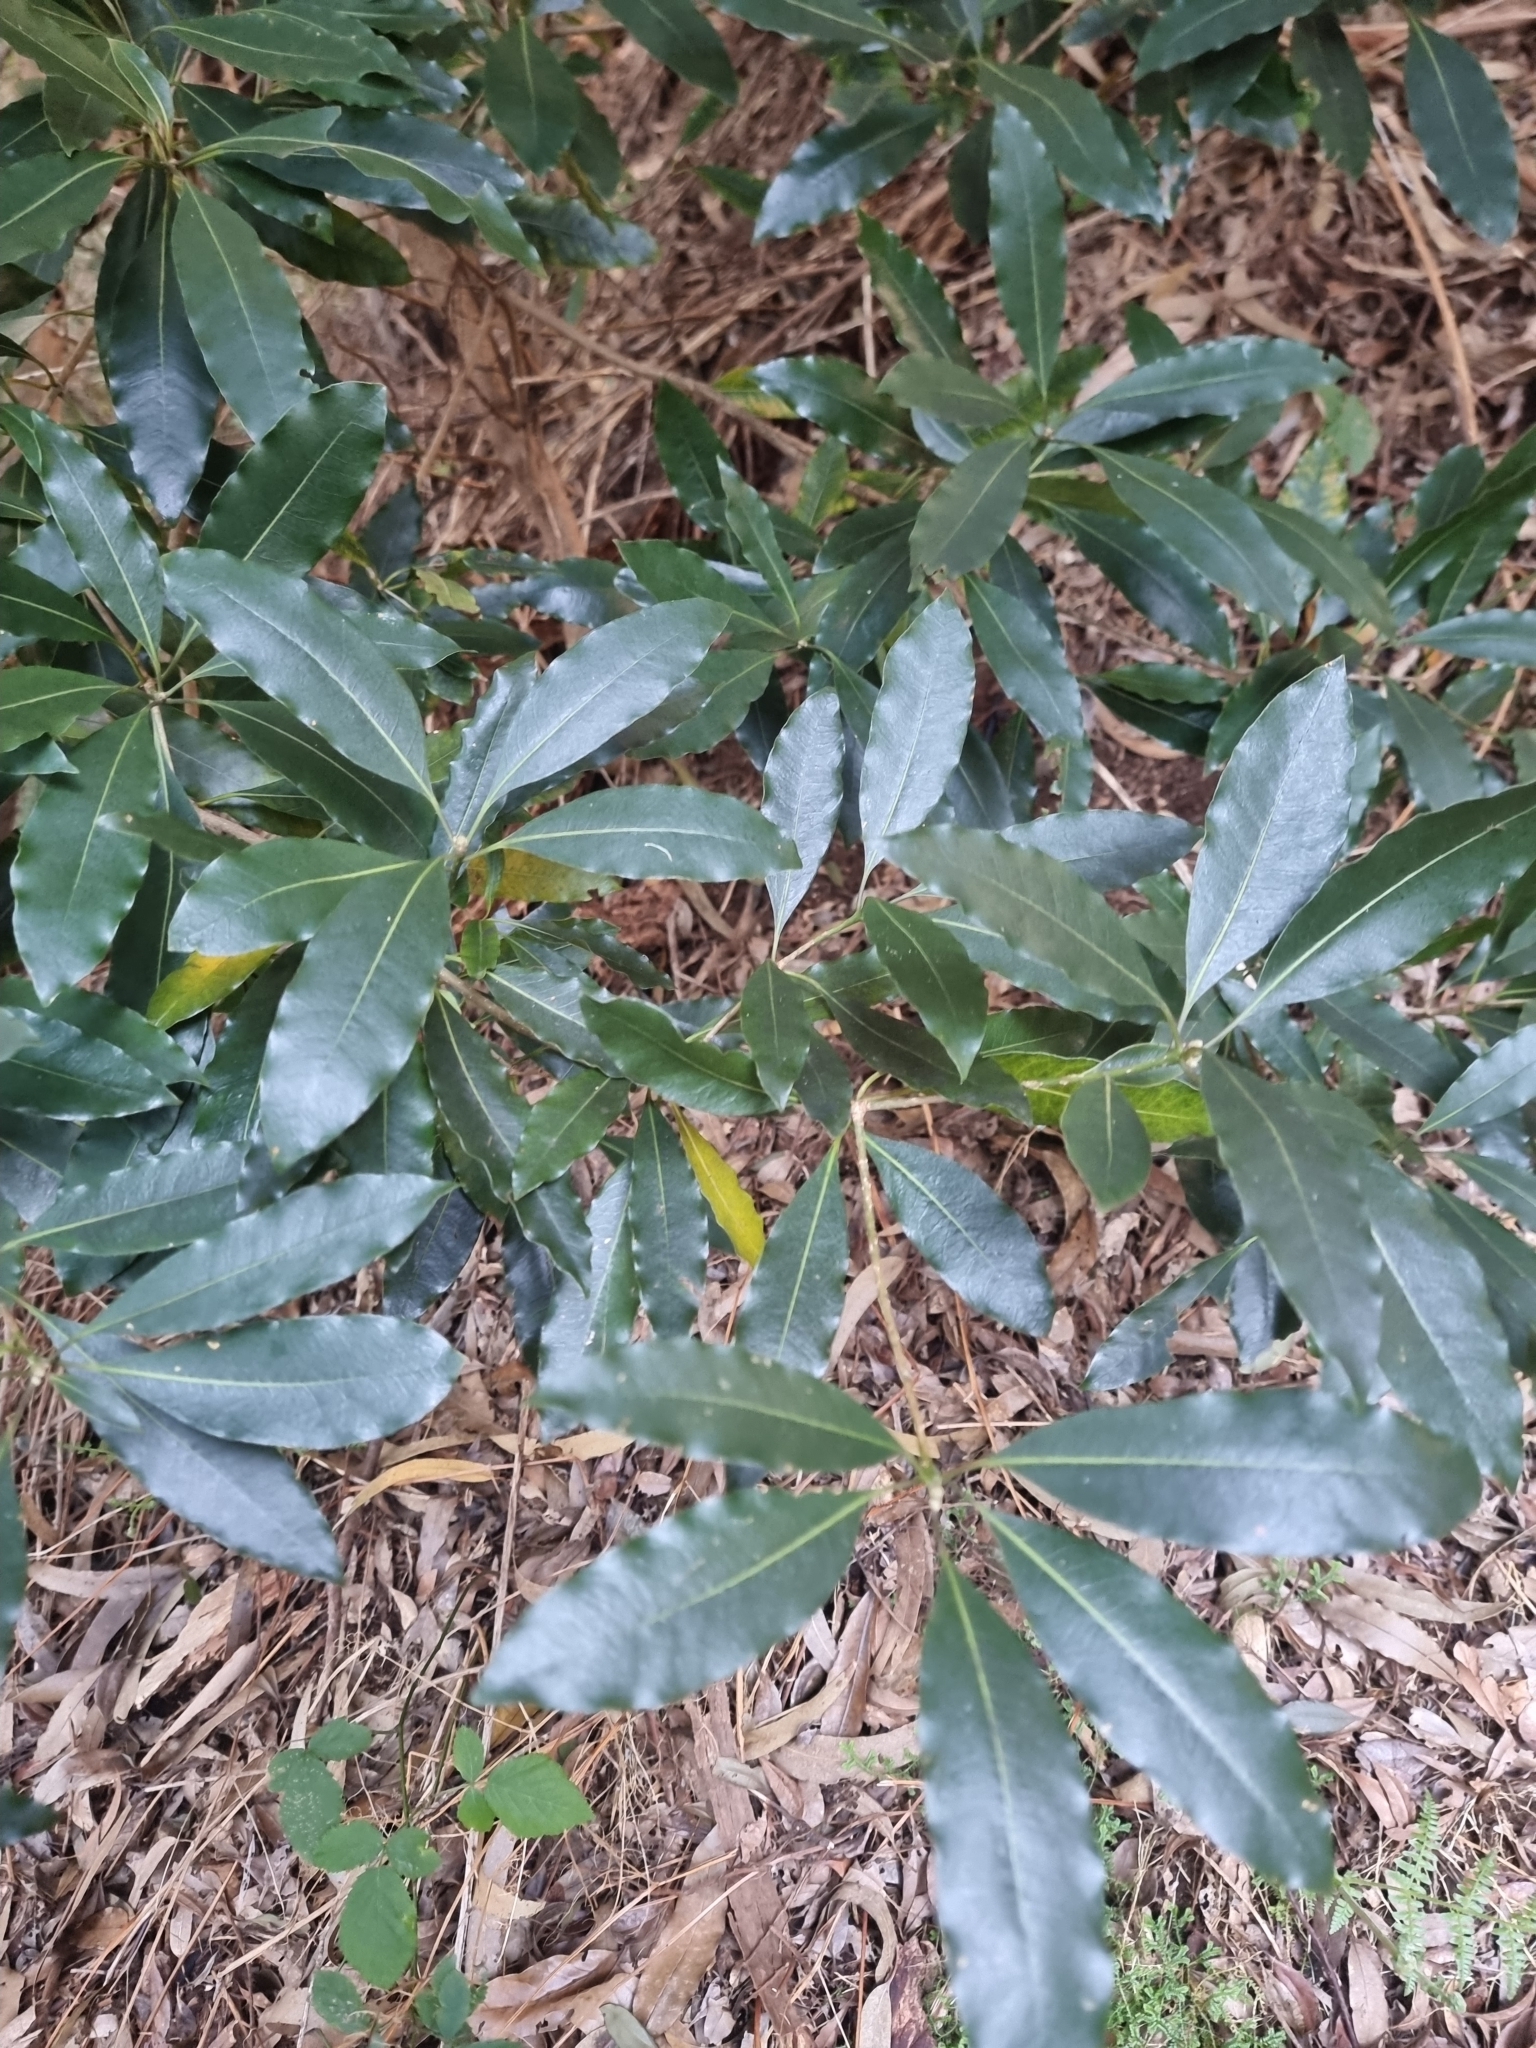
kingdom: Plantae
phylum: Tracheophyta
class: Magnoliopsida
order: Apiales
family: Pittosporaceae
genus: Pittosporum
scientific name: Pittosporum undulatum
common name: Australian cheesewood
